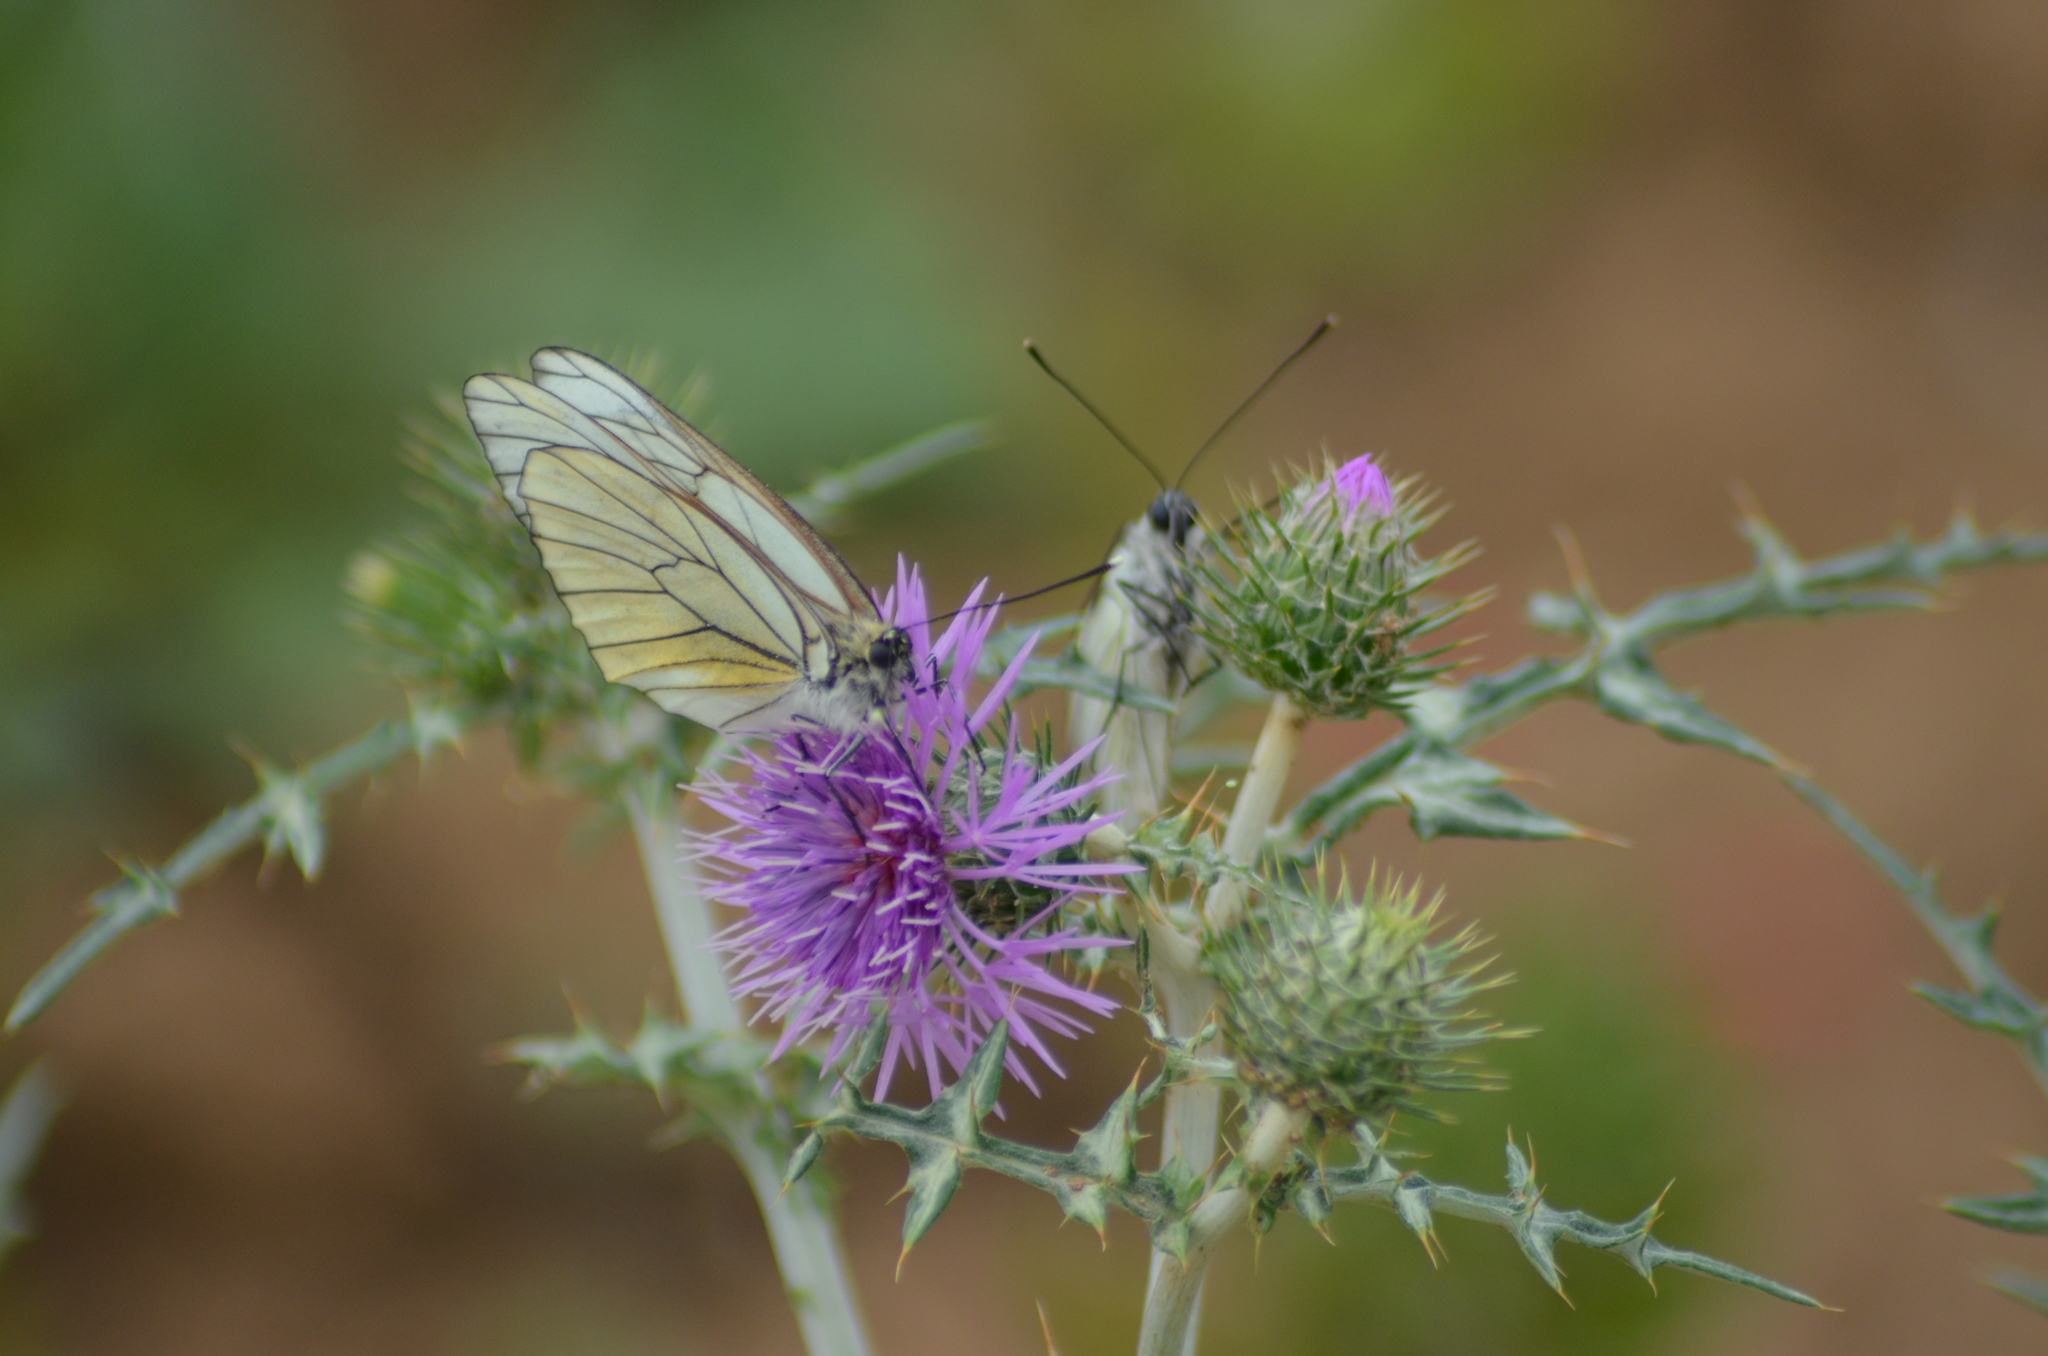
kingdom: Animalia
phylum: Arthropoda
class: Insecta
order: Lepidoptera
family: Pieridae
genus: Aporia
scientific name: Aporia crataegi
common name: Black-veined white
